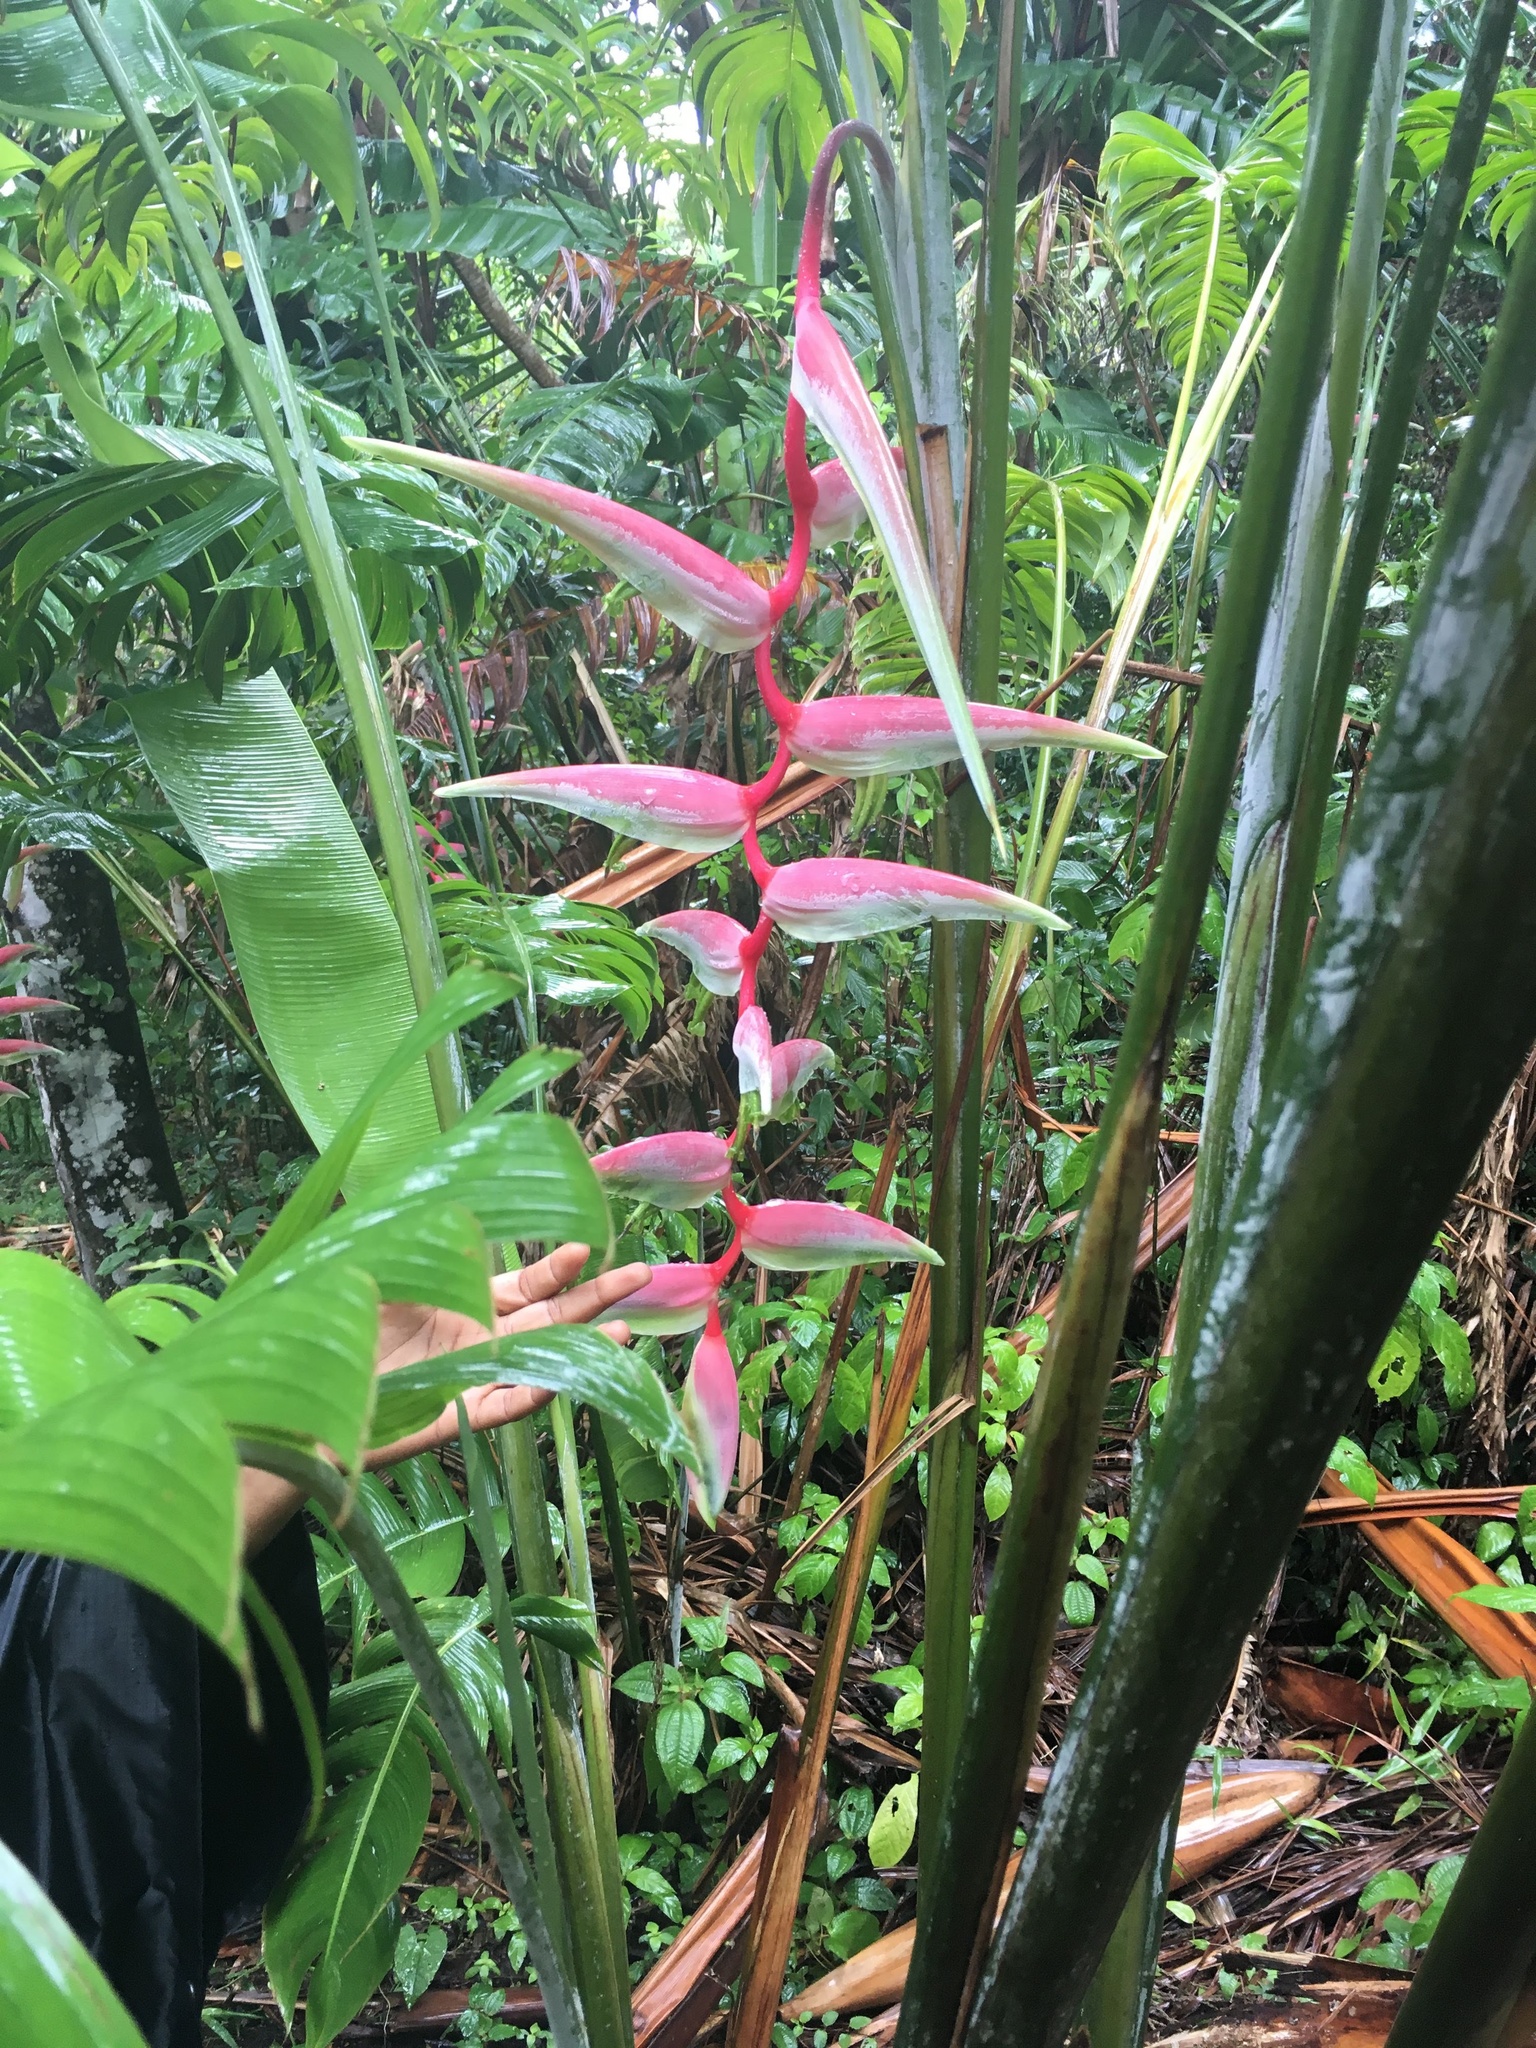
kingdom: Plantae
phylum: Tracheophyta
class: Liliopsida
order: Zingiberales
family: Heliconiaceae
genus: Heliconia
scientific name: Heliconia chartacea
